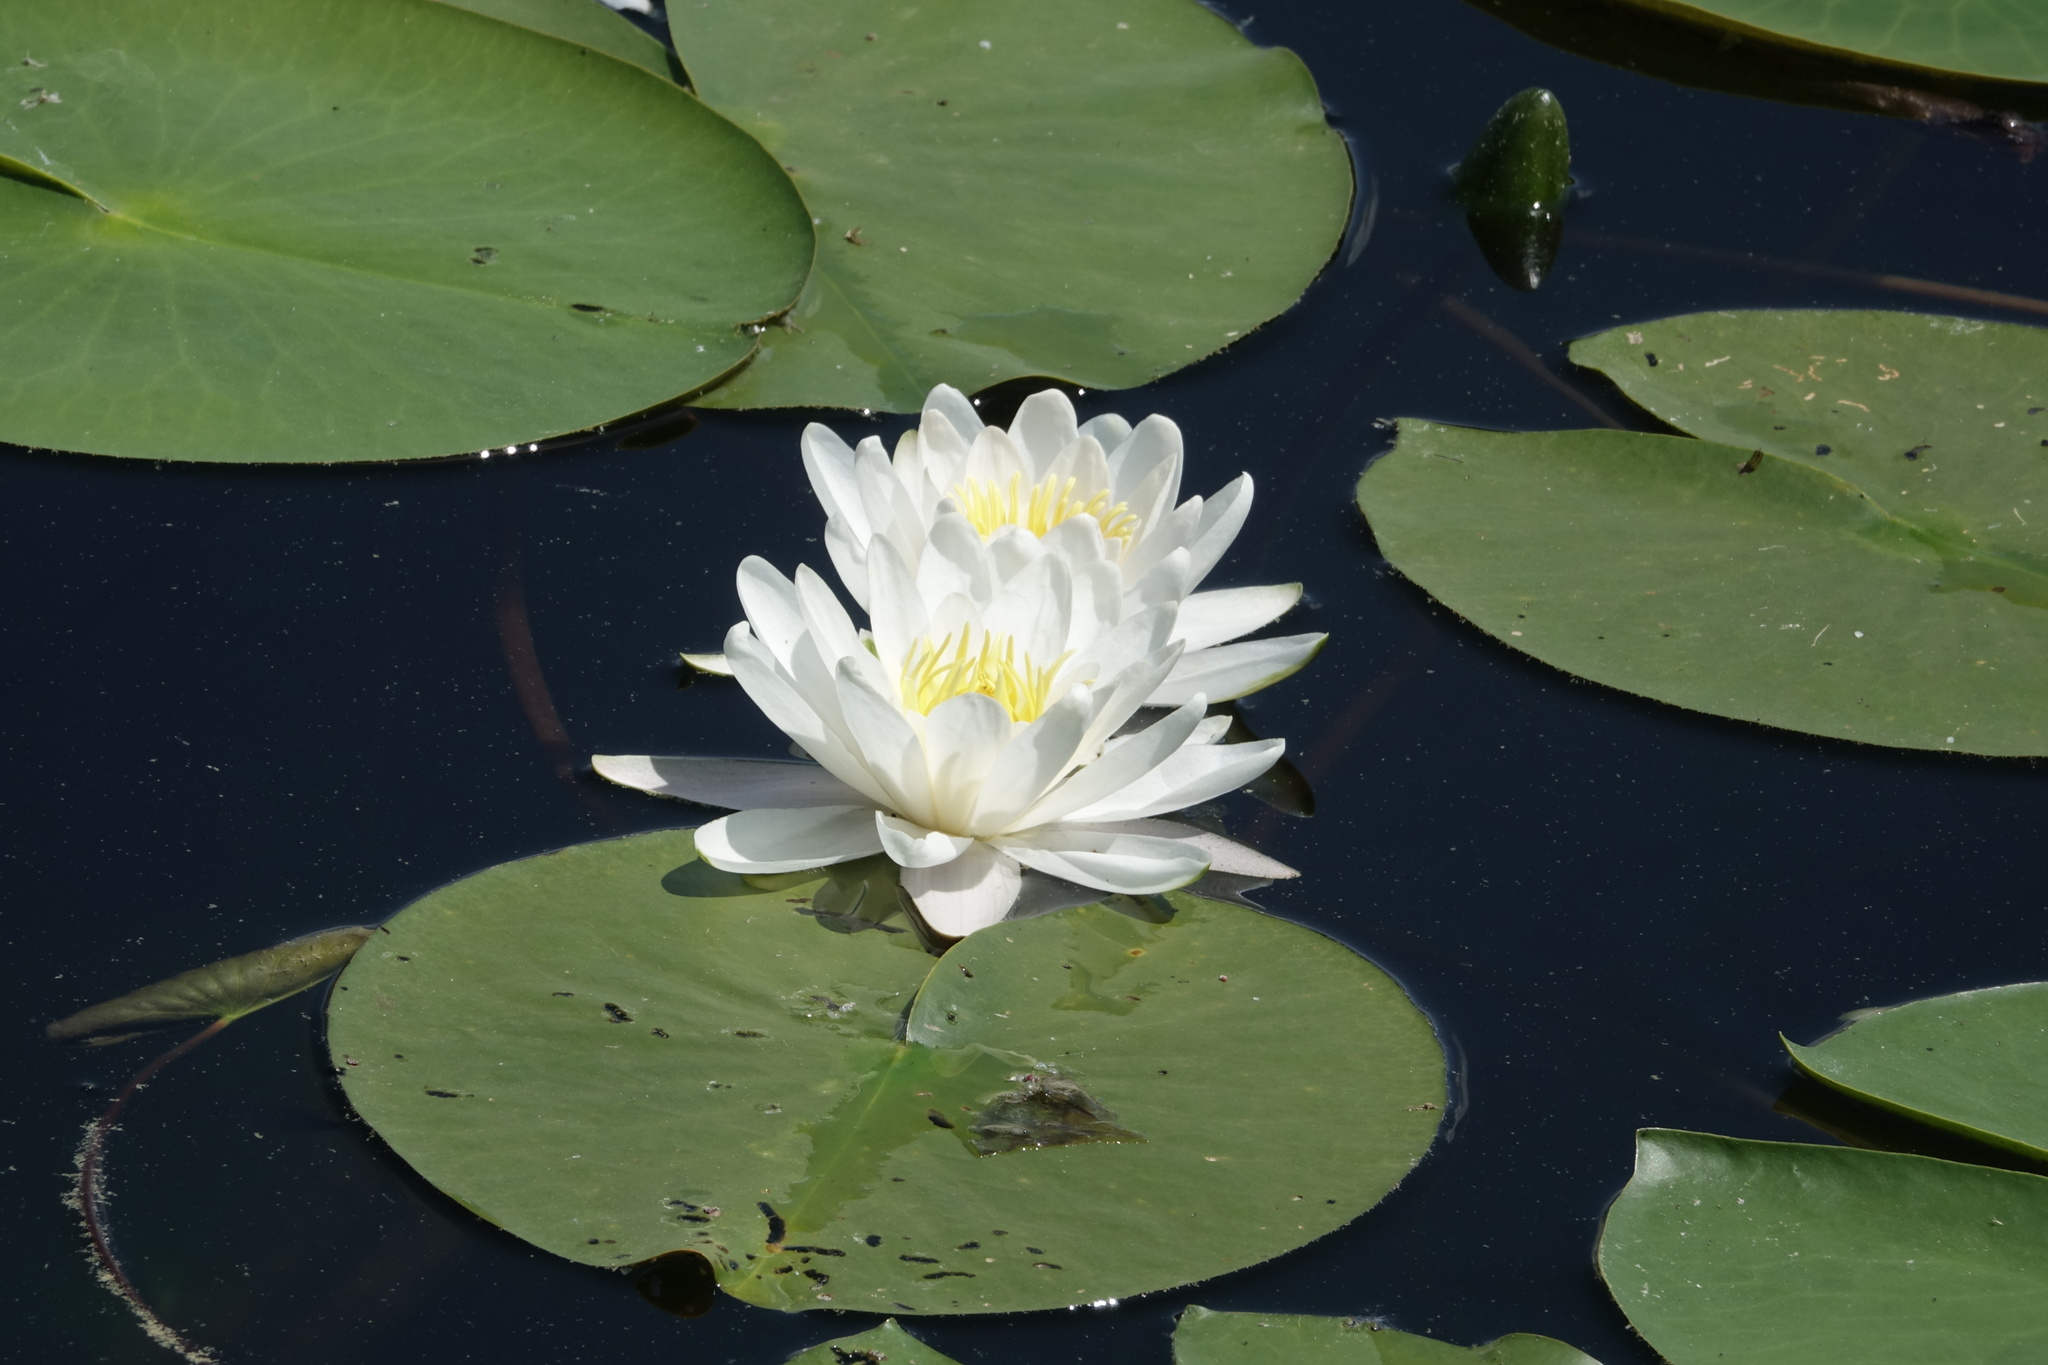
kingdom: Plantae
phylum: Tracheophyta
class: Magnoliopsida
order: Nymphaeales
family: Nymphaeaceae
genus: Nymphaea
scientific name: Nymphaea alba
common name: White water-lily
